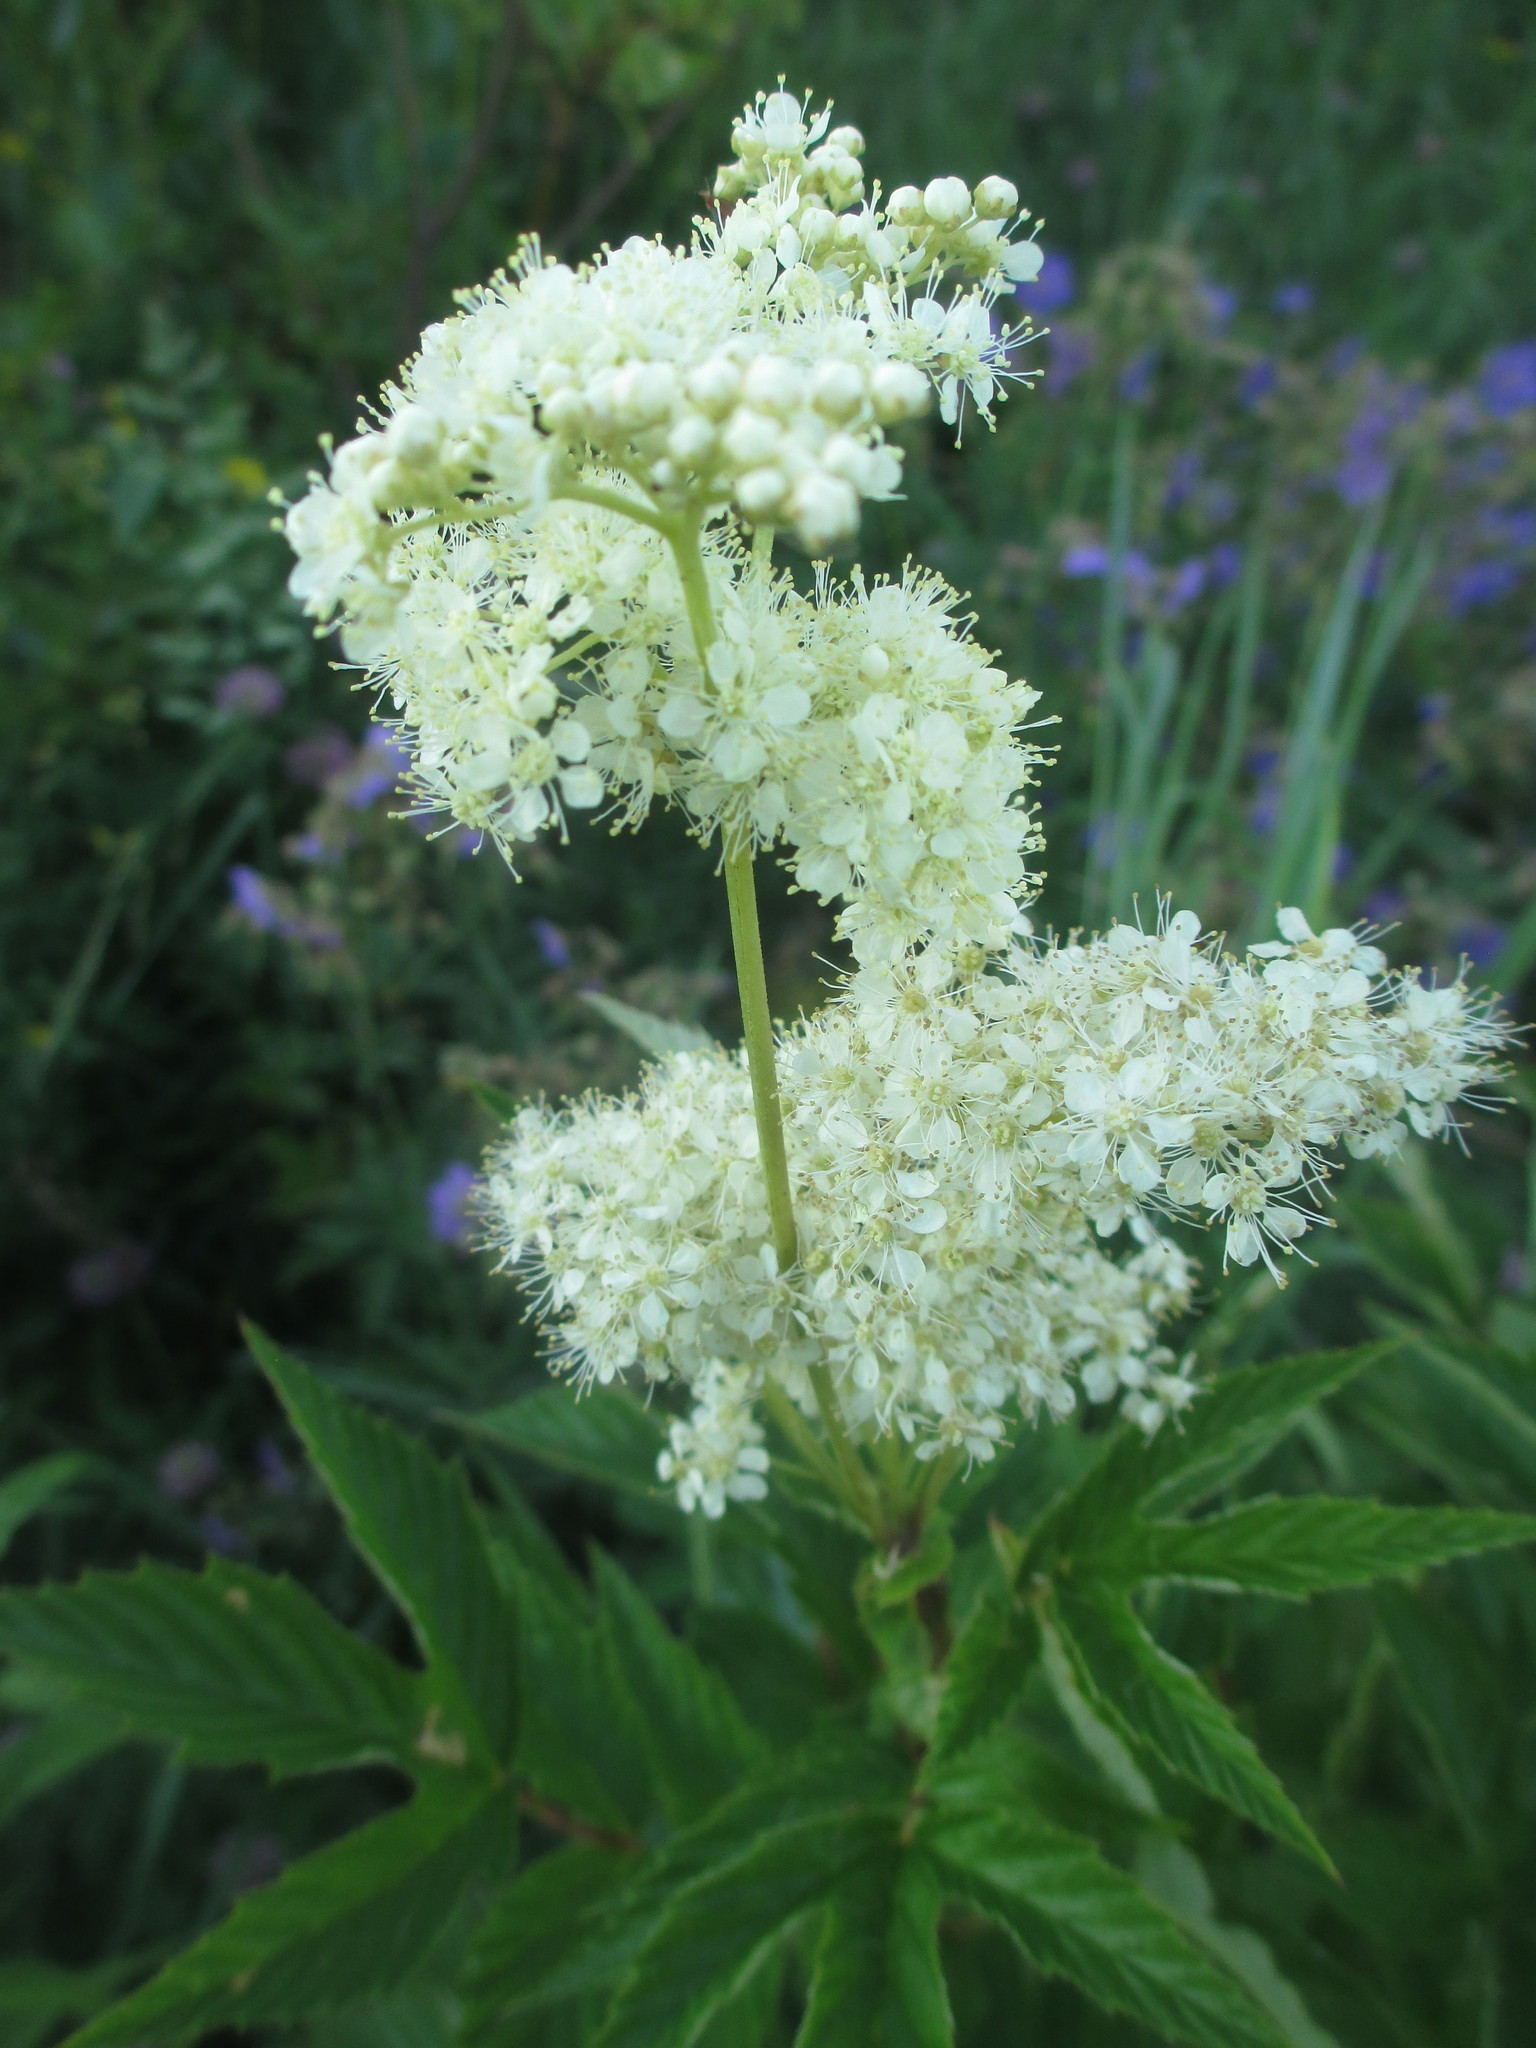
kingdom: Plantae
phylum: Tracheophyta
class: Magnoliopsida
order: Rosales
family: Rosaceae
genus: Filipendula
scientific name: Filipendula ulmaria
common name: Meadowsweet
